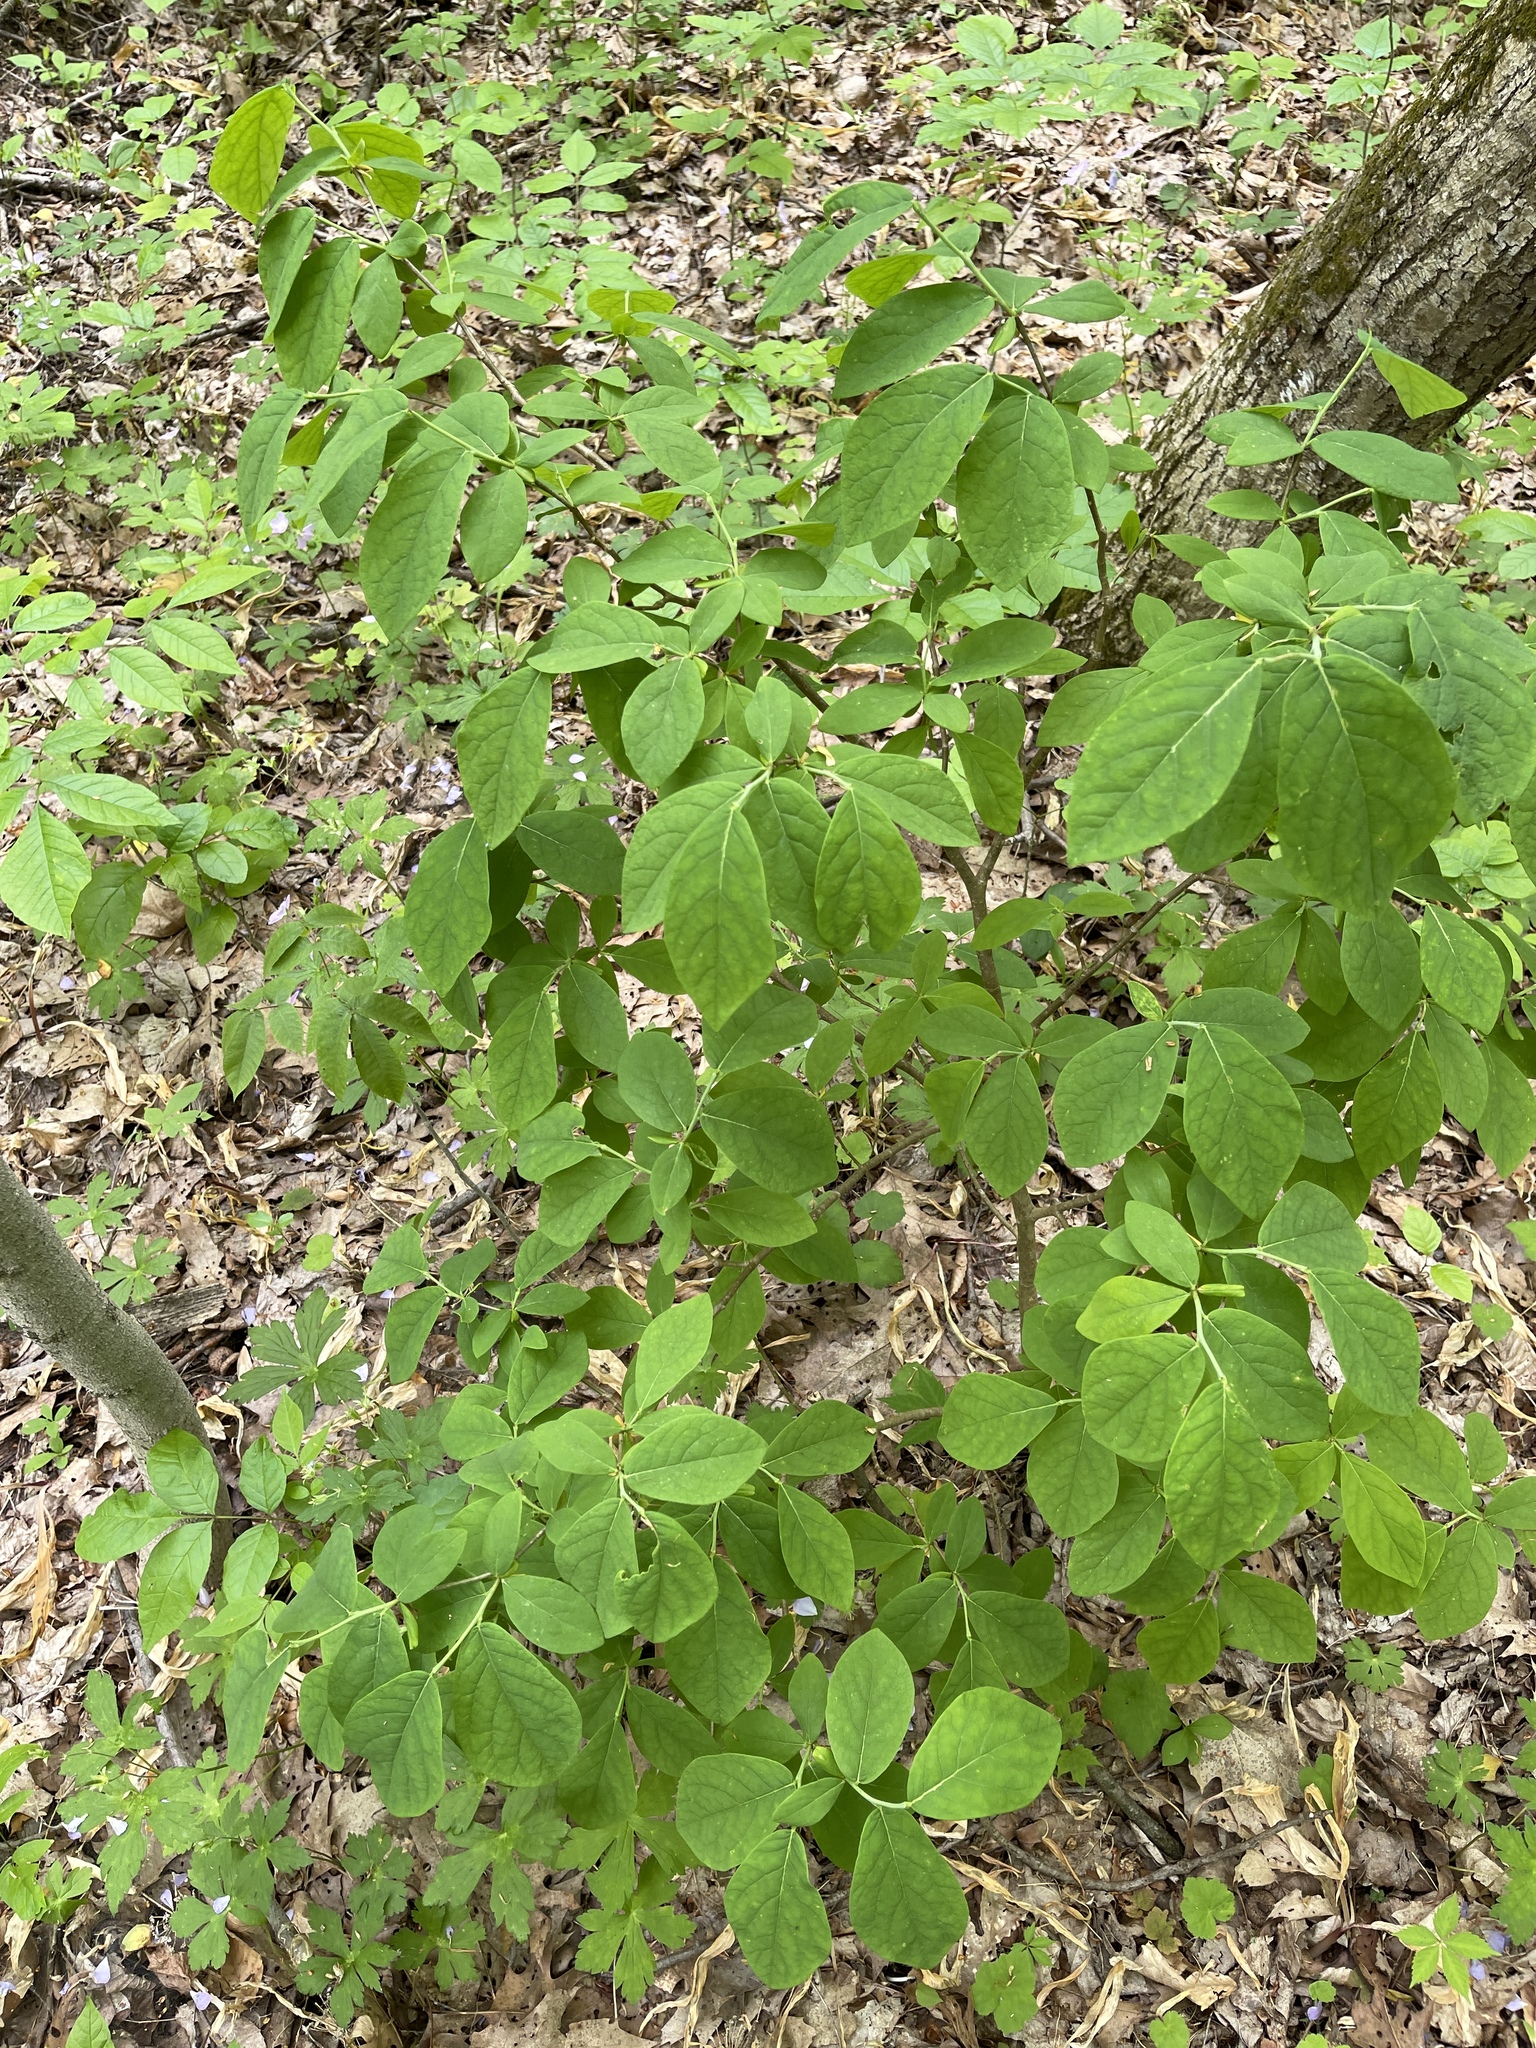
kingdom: Plantae
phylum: Tracheophyta
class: Magnoliopsida
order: Malvales
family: Thymelaeaceae
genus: Dirca
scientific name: Dirca palustris
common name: Leatherwood
